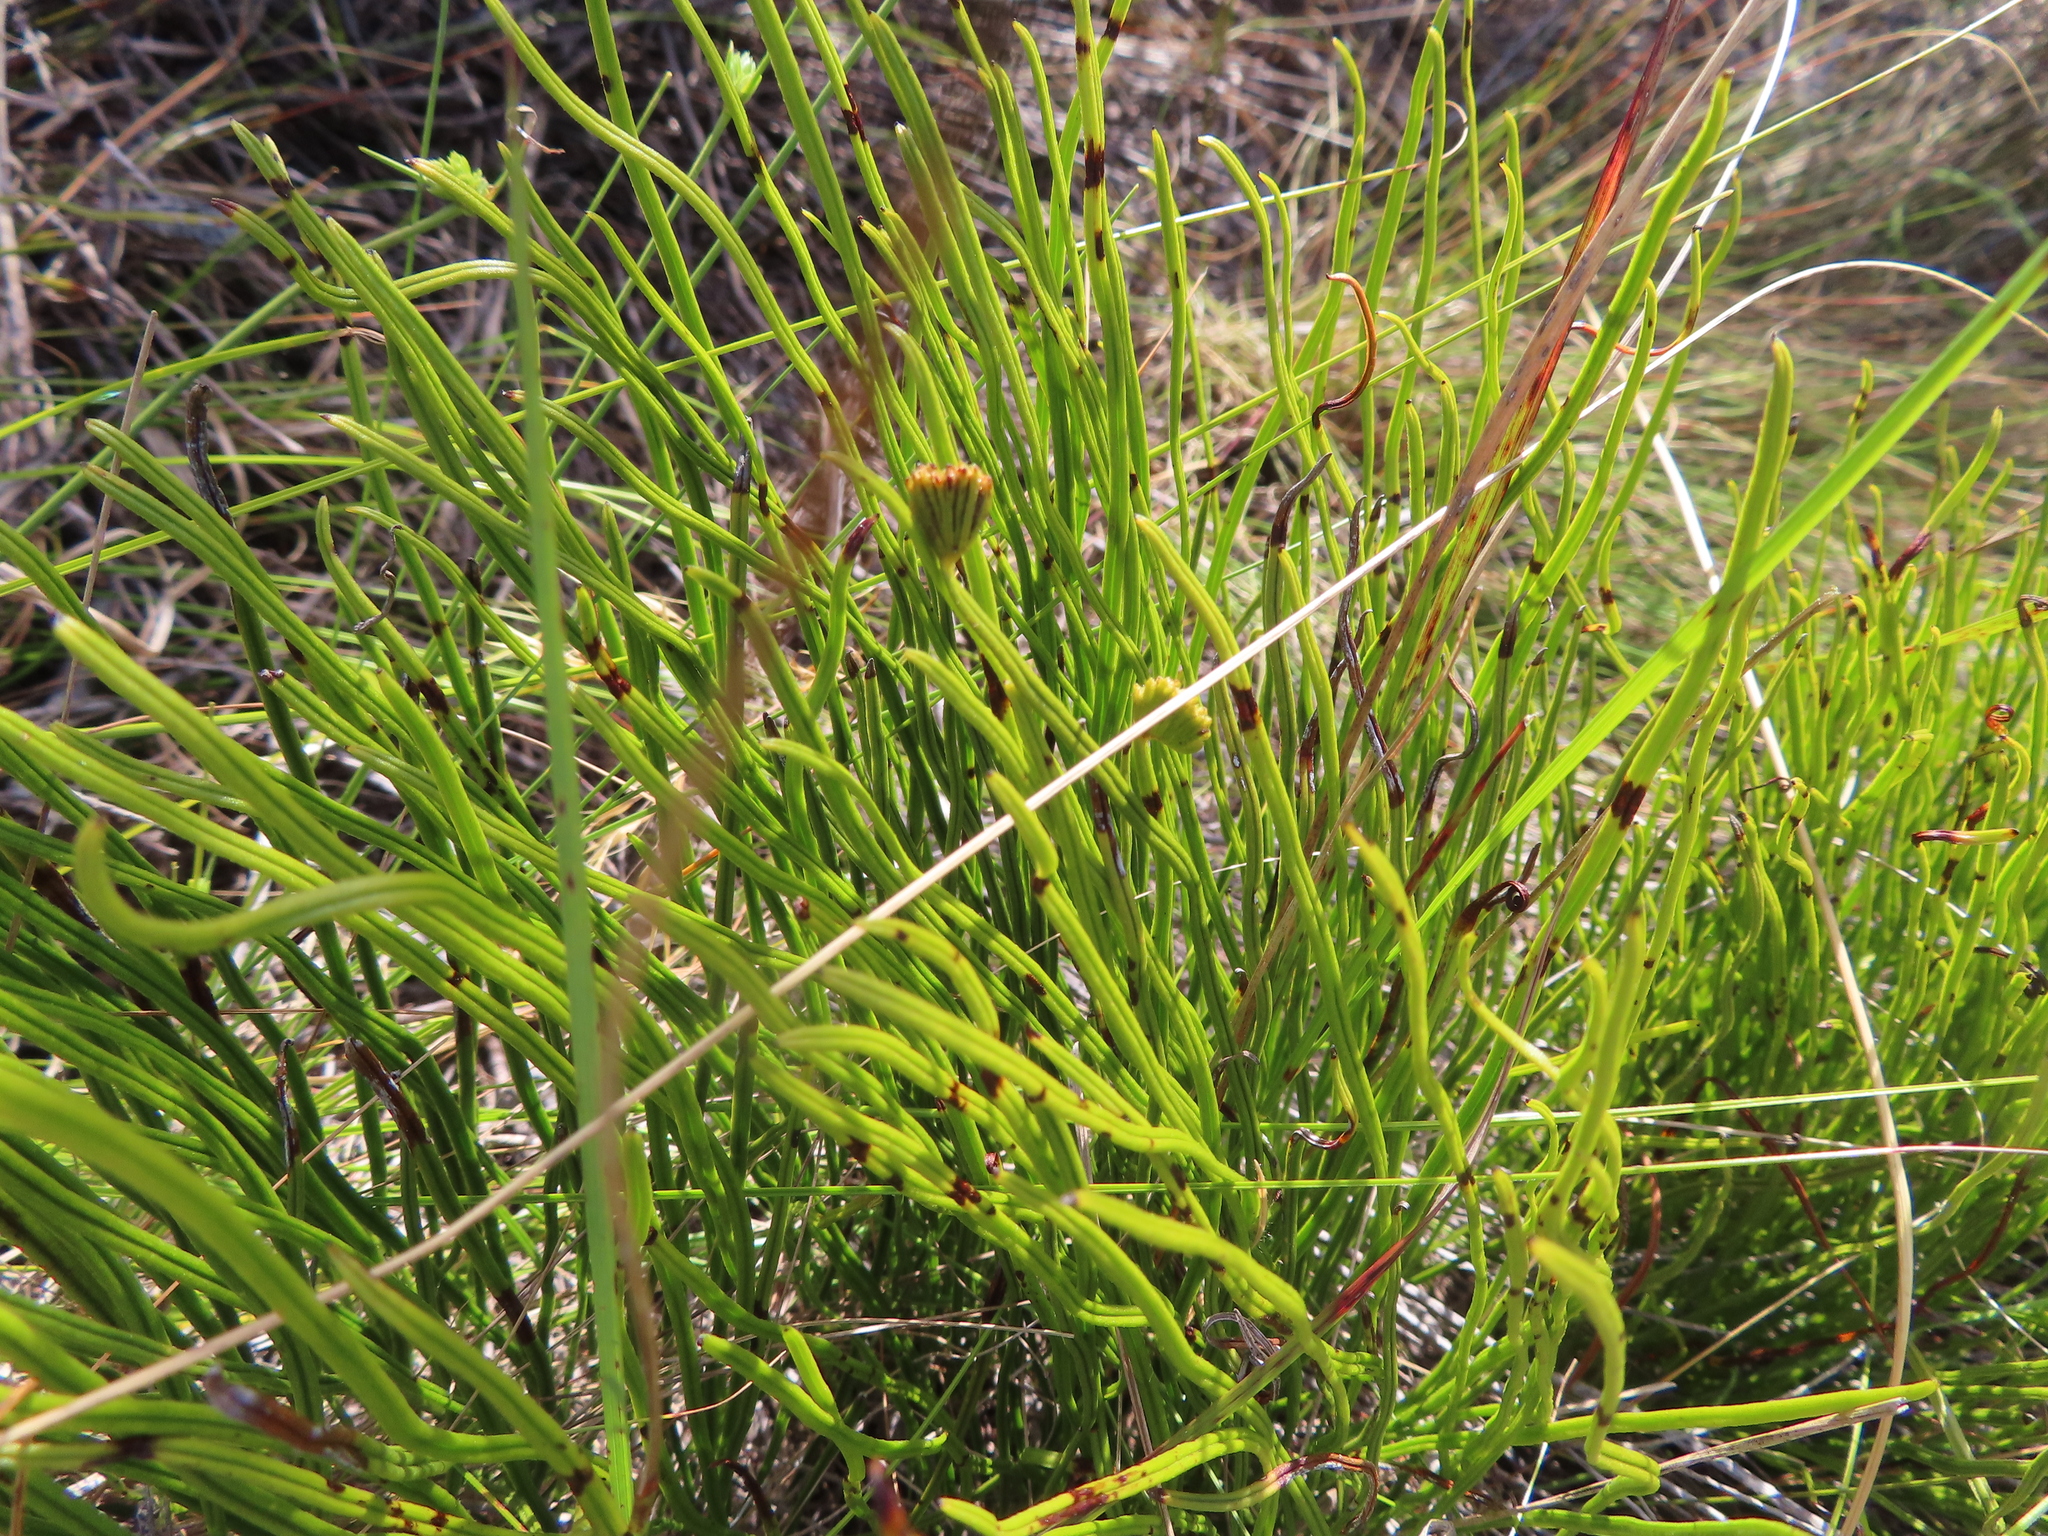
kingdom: Plantae
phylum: Tracheophyta
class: Polypodiopsida
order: Schizaeales
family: Schizaeaceae
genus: Schizaea
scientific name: Schizaea pectinata
